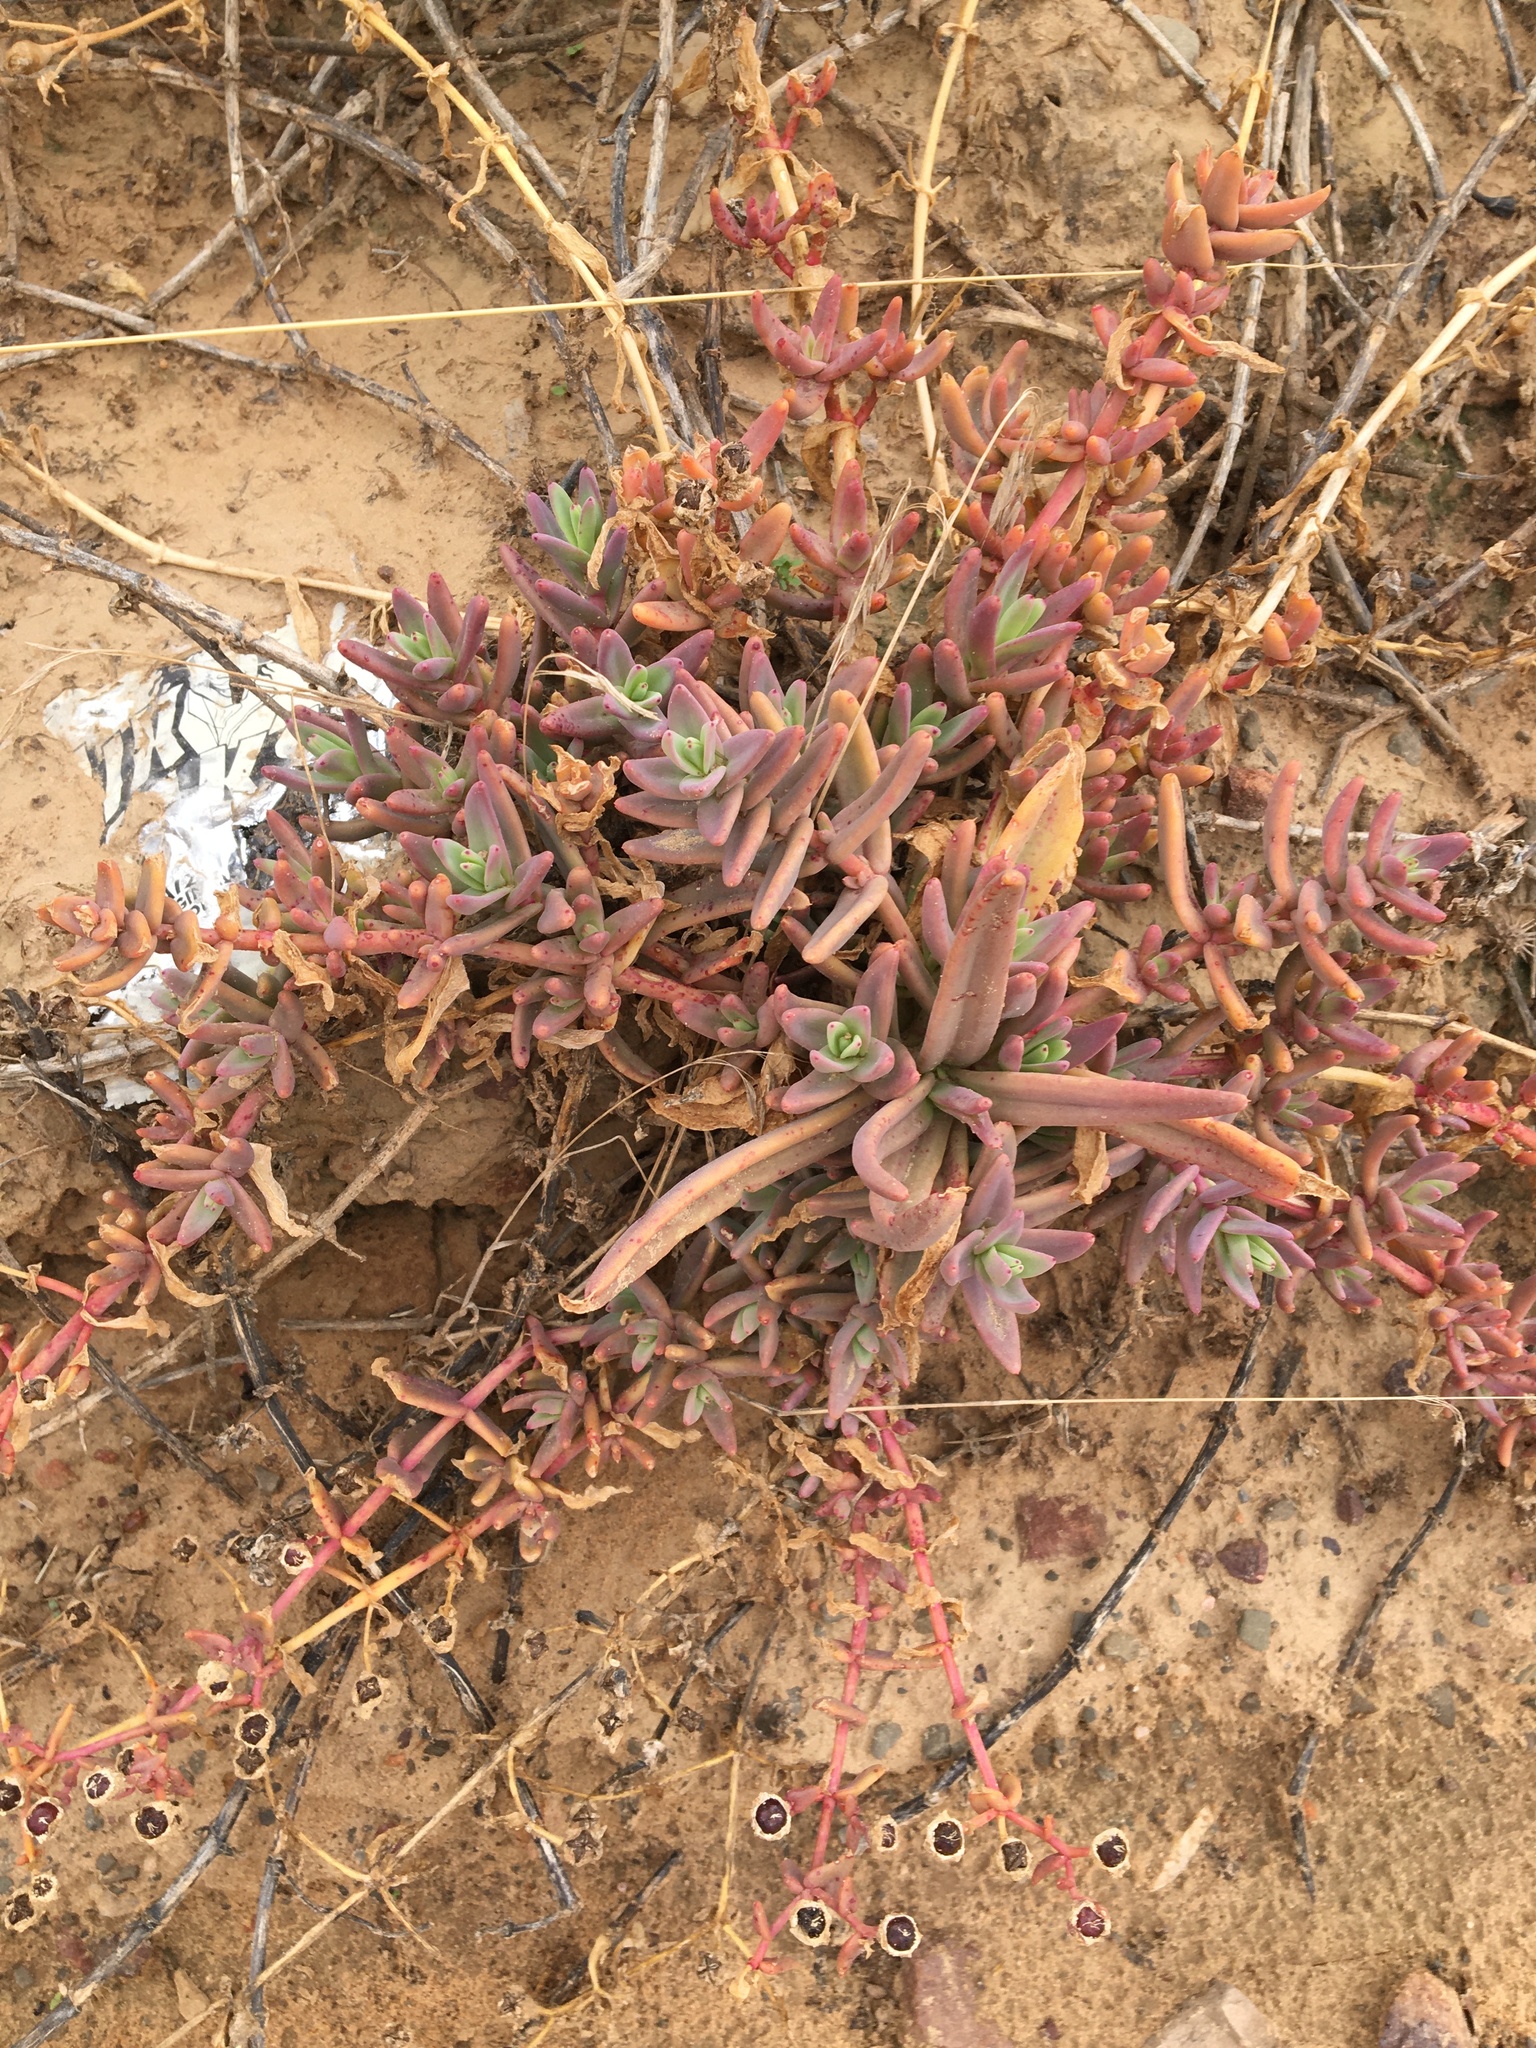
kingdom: Plantae
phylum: Tracheophyta
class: Magnoliopsida
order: Caryophyllales
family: Aizoaceae
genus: Mesembryanthemum
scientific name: Mesembryanthemum pallens
